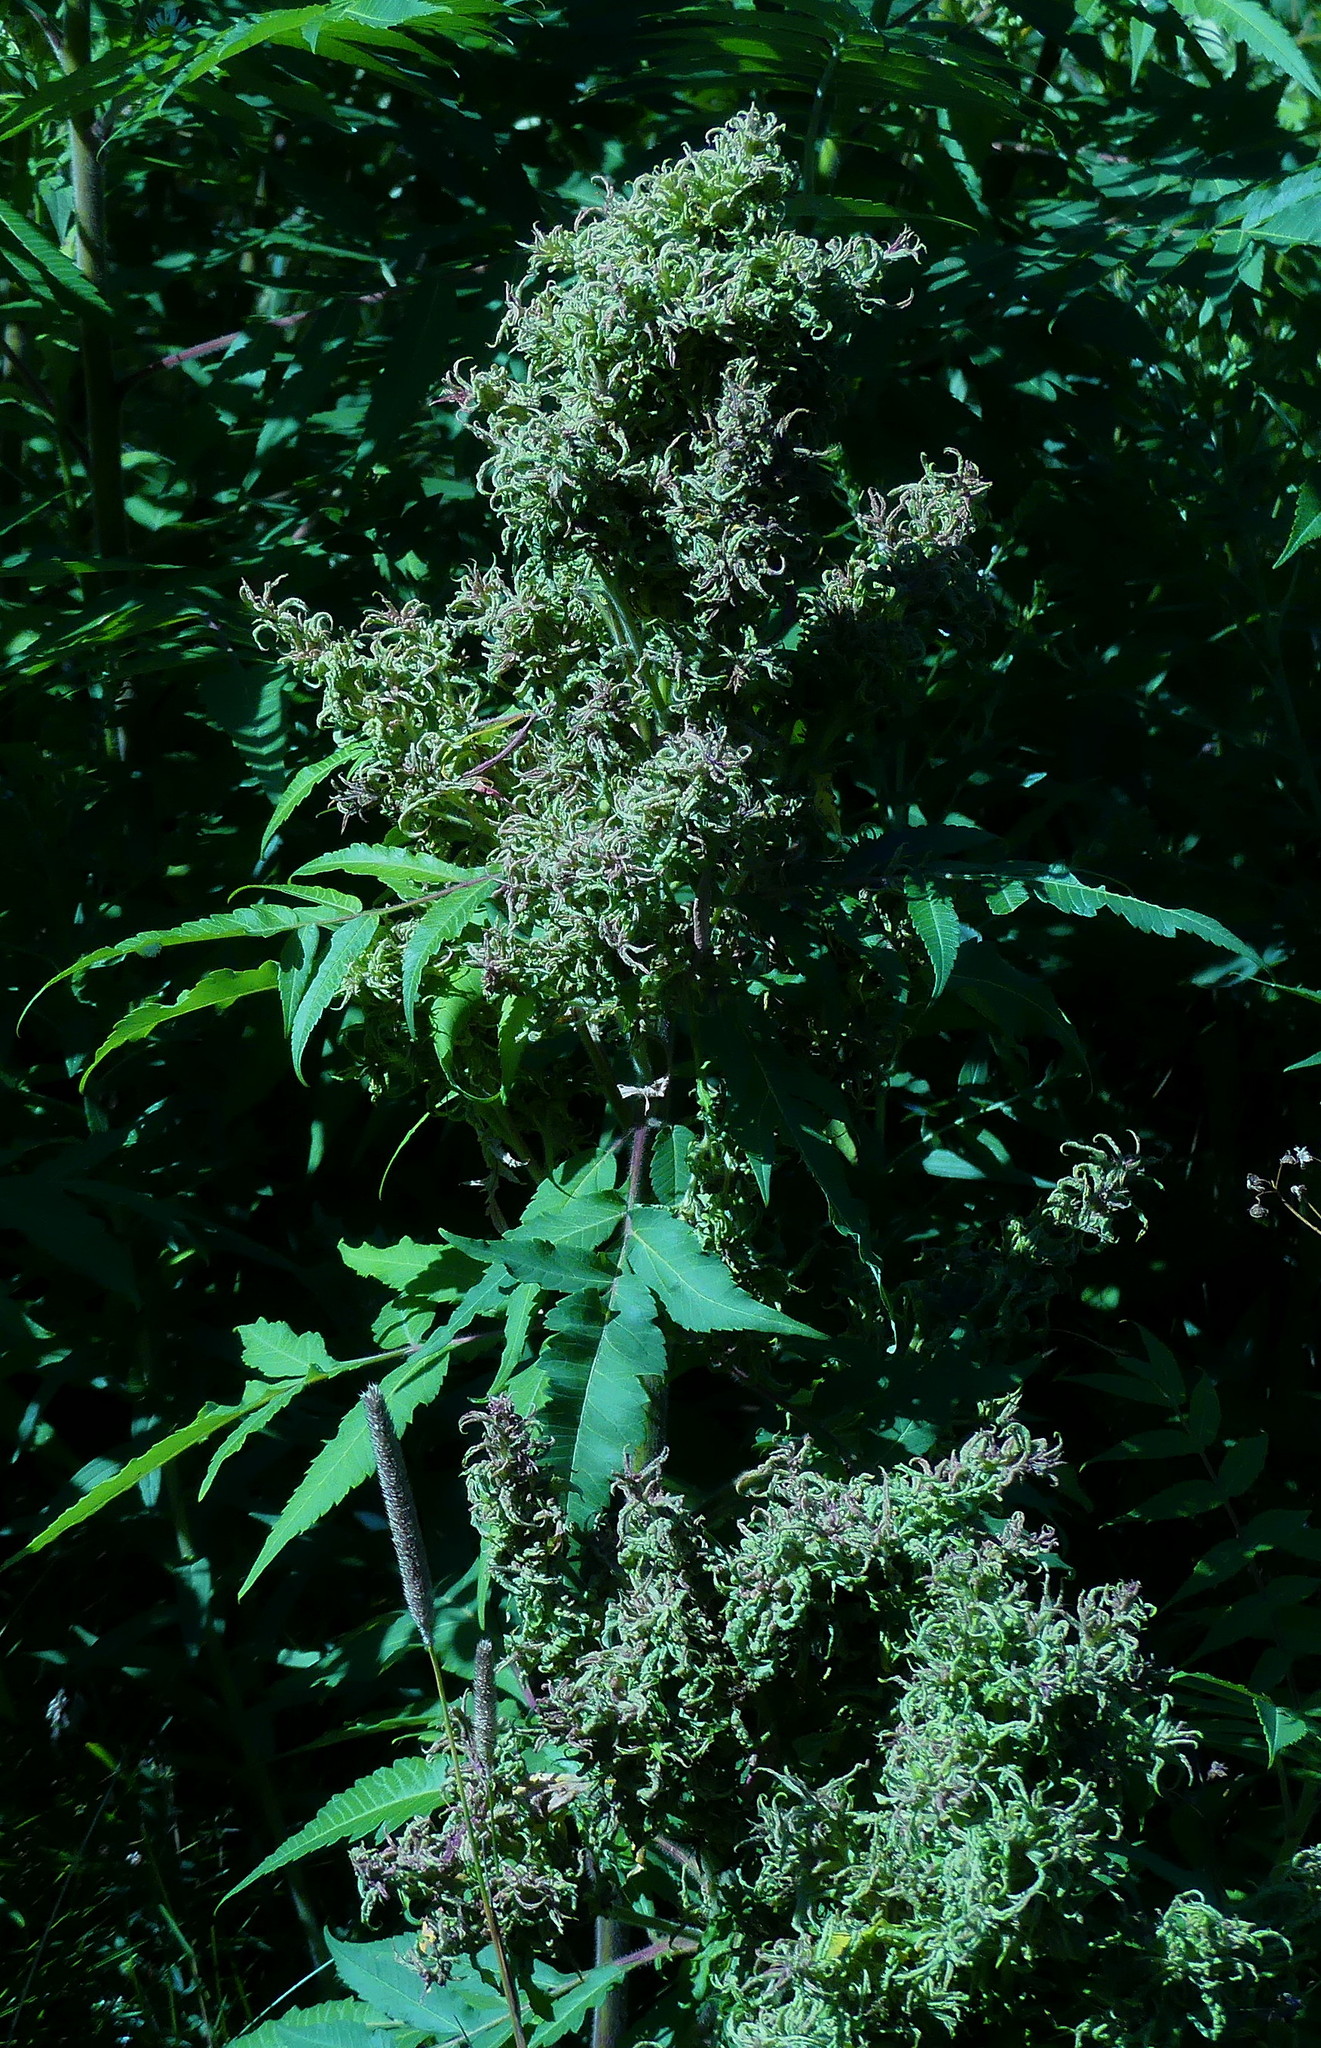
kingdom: Plantae
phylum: Tracheophyta
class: Magnoliopsida
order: Sapindales
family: Anacardiaceae
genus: Rhus
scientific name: Rhus typhina
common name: Staghorn sumac
